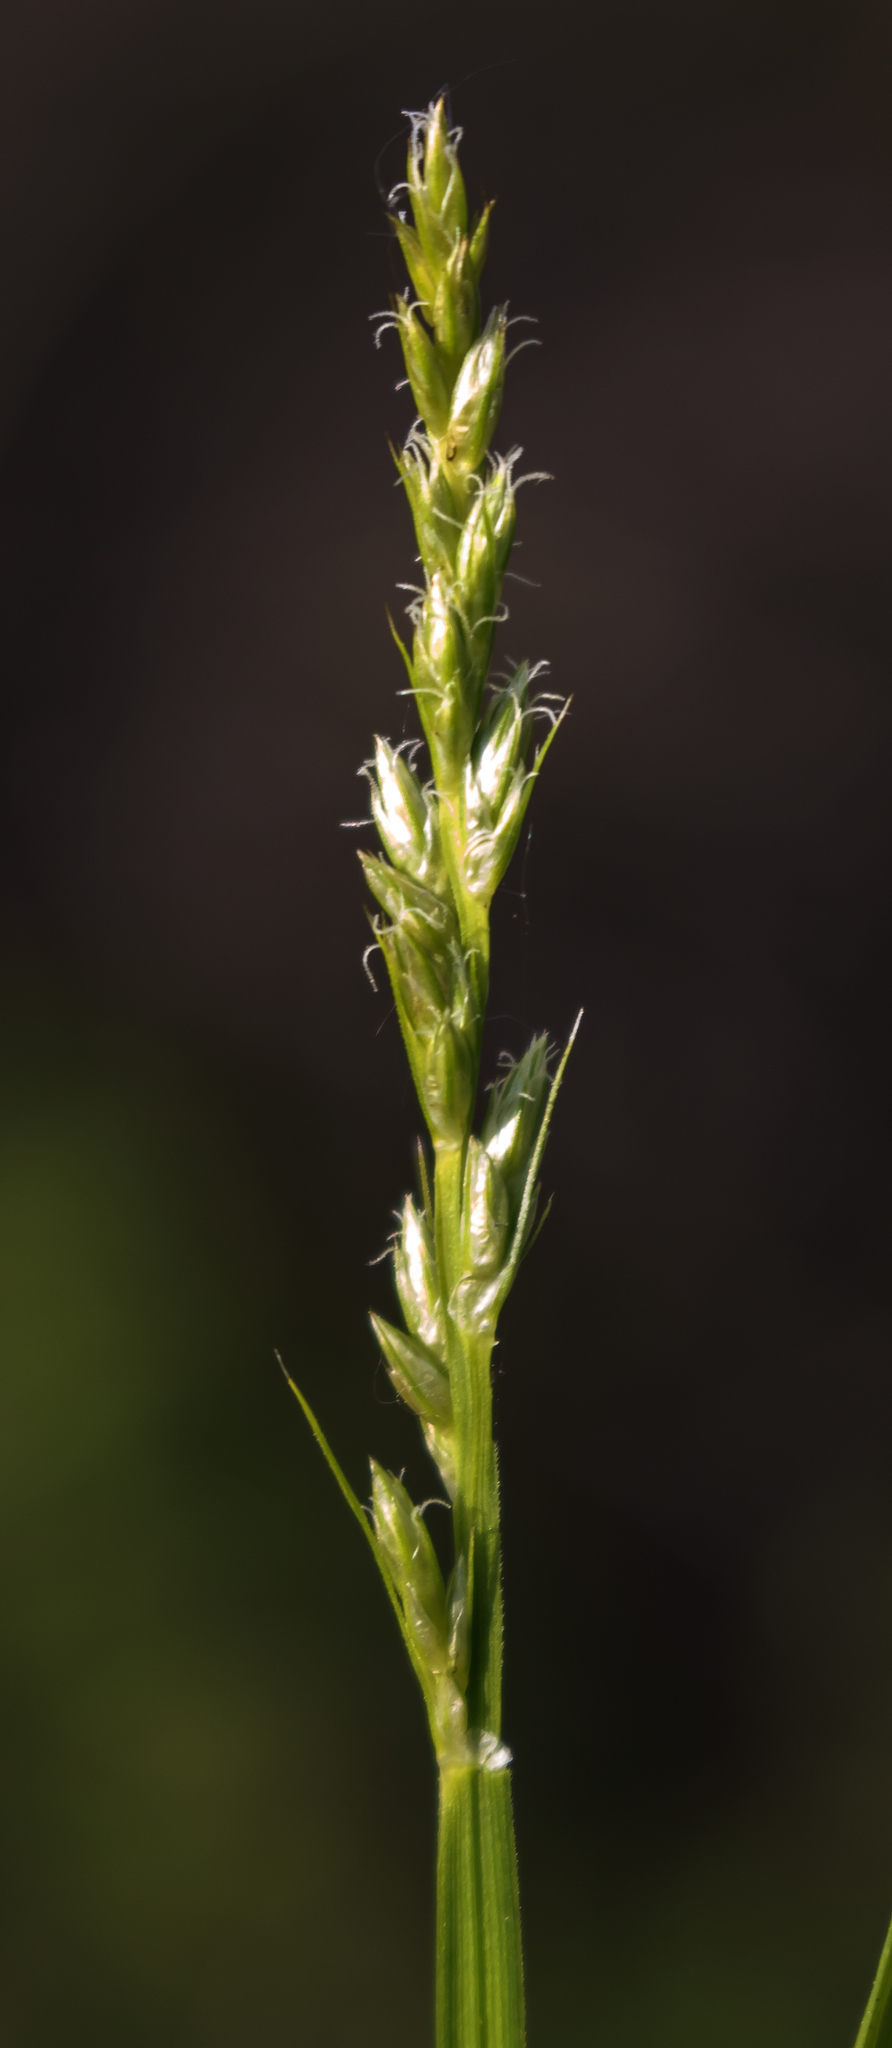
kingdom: Plantae
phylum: Tracheophyta
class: Liliopsida
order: Poales
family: Cyperaceae
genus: Carex
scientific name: Carex stipata
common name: Awl-fruited sedge
